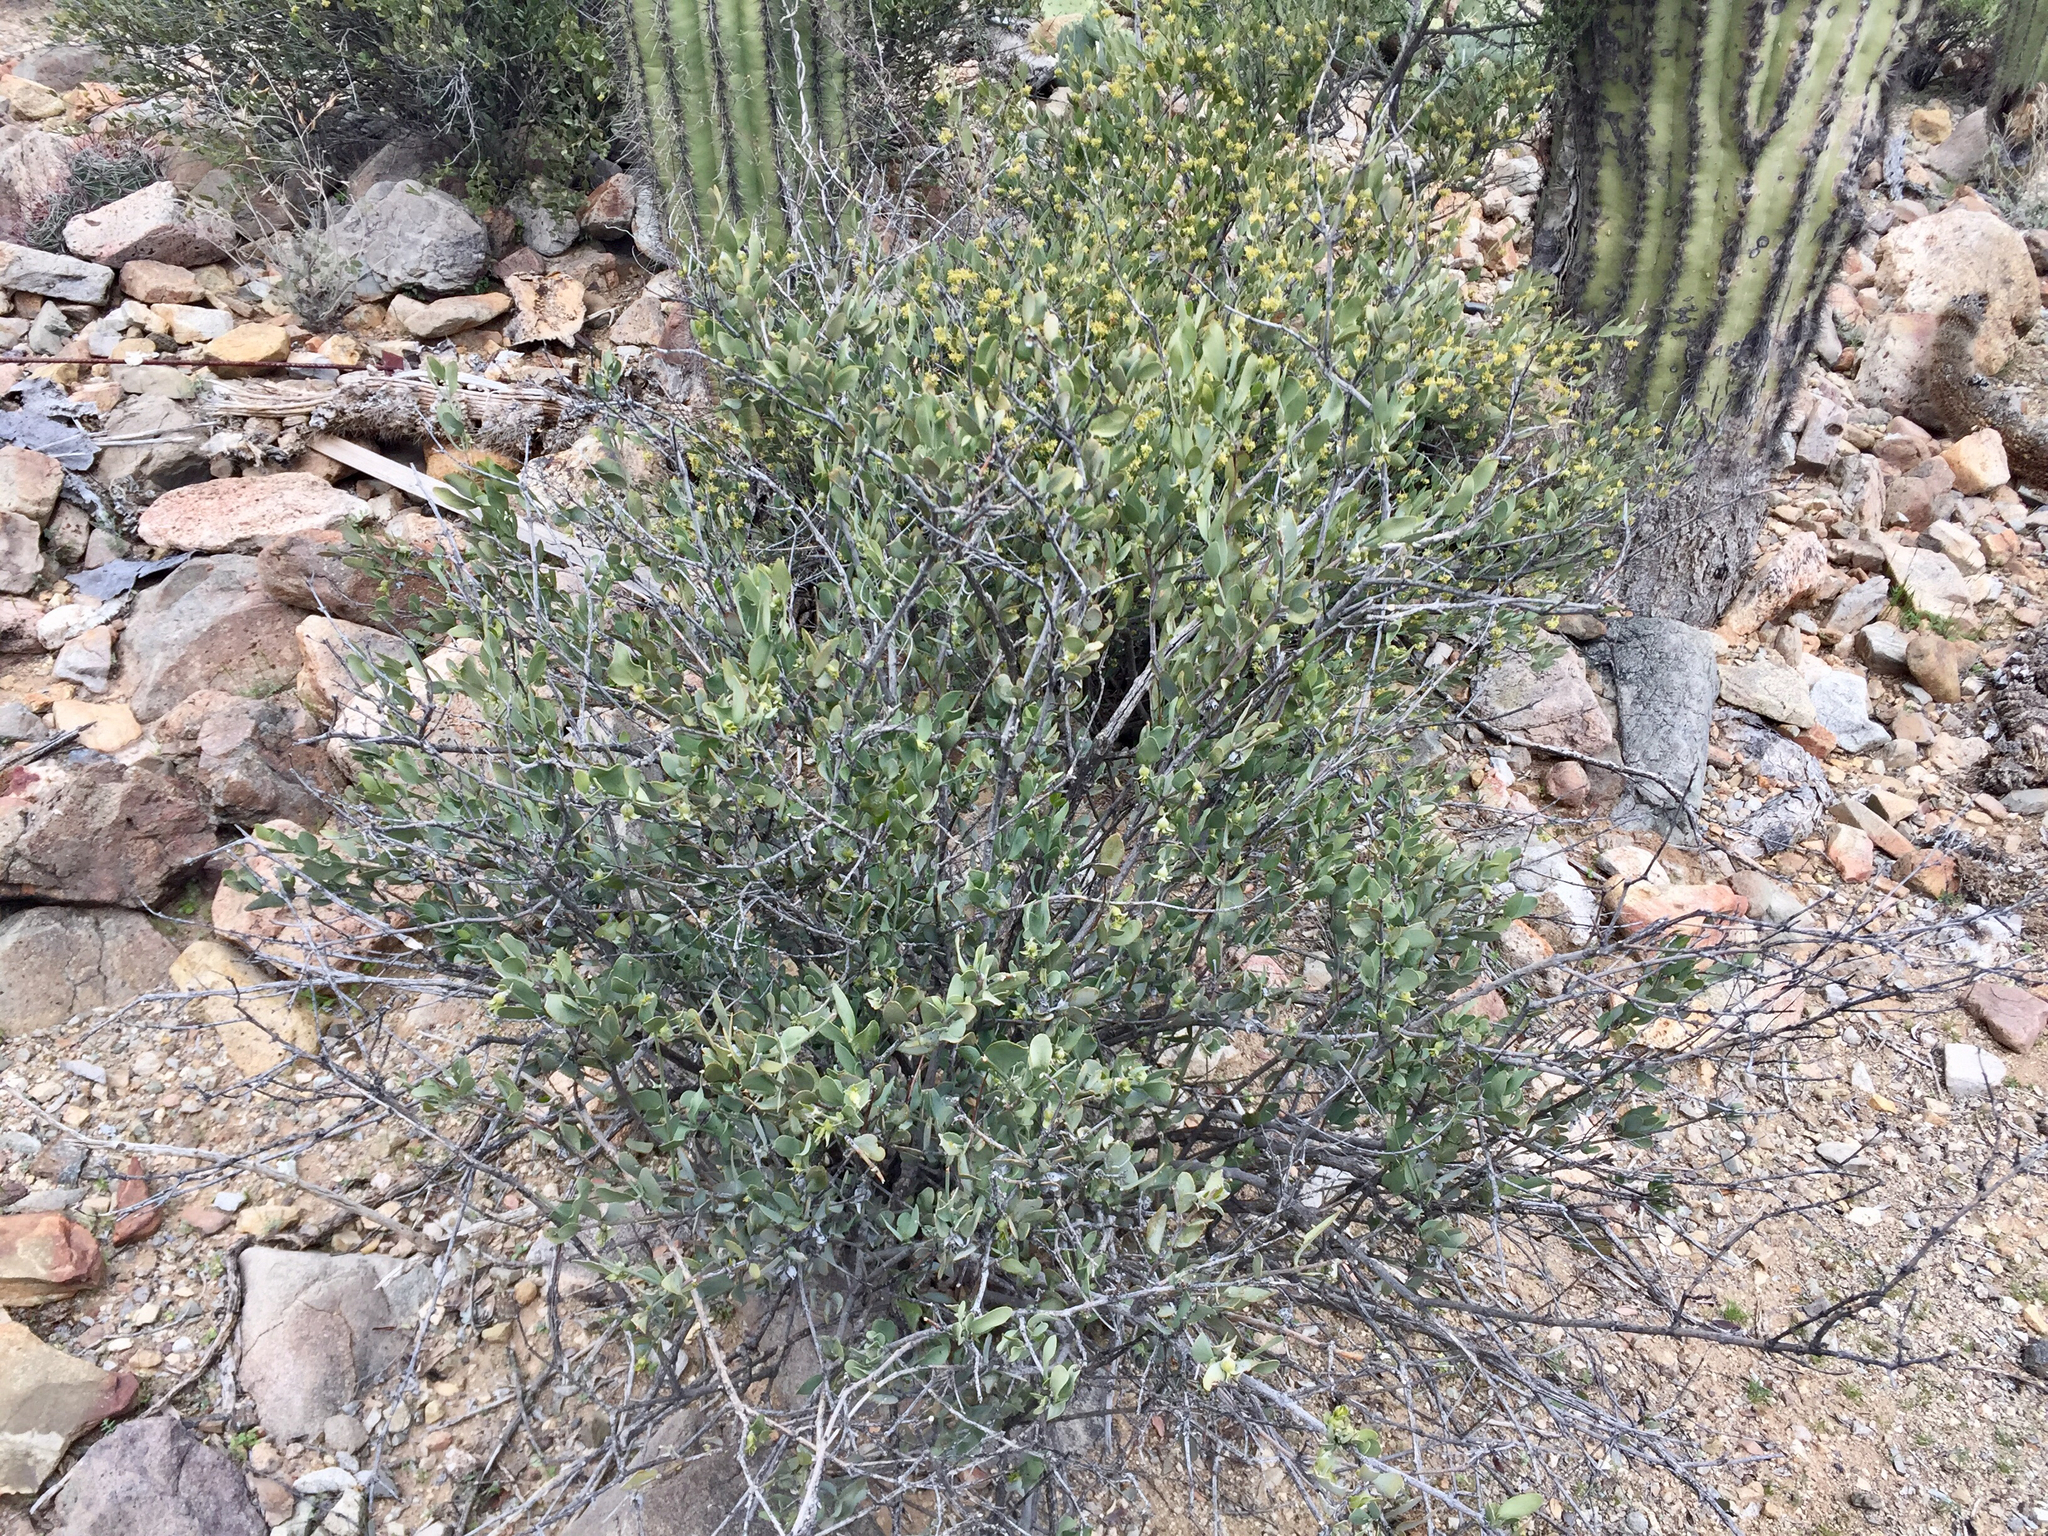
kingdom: Plantae
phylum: Tracheophyta
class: Magnoliopsida
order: Caryophyllales
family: Simmondsiaceae
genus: Simmondsia
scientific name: Simmondsia chinensis
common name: Jojoba
